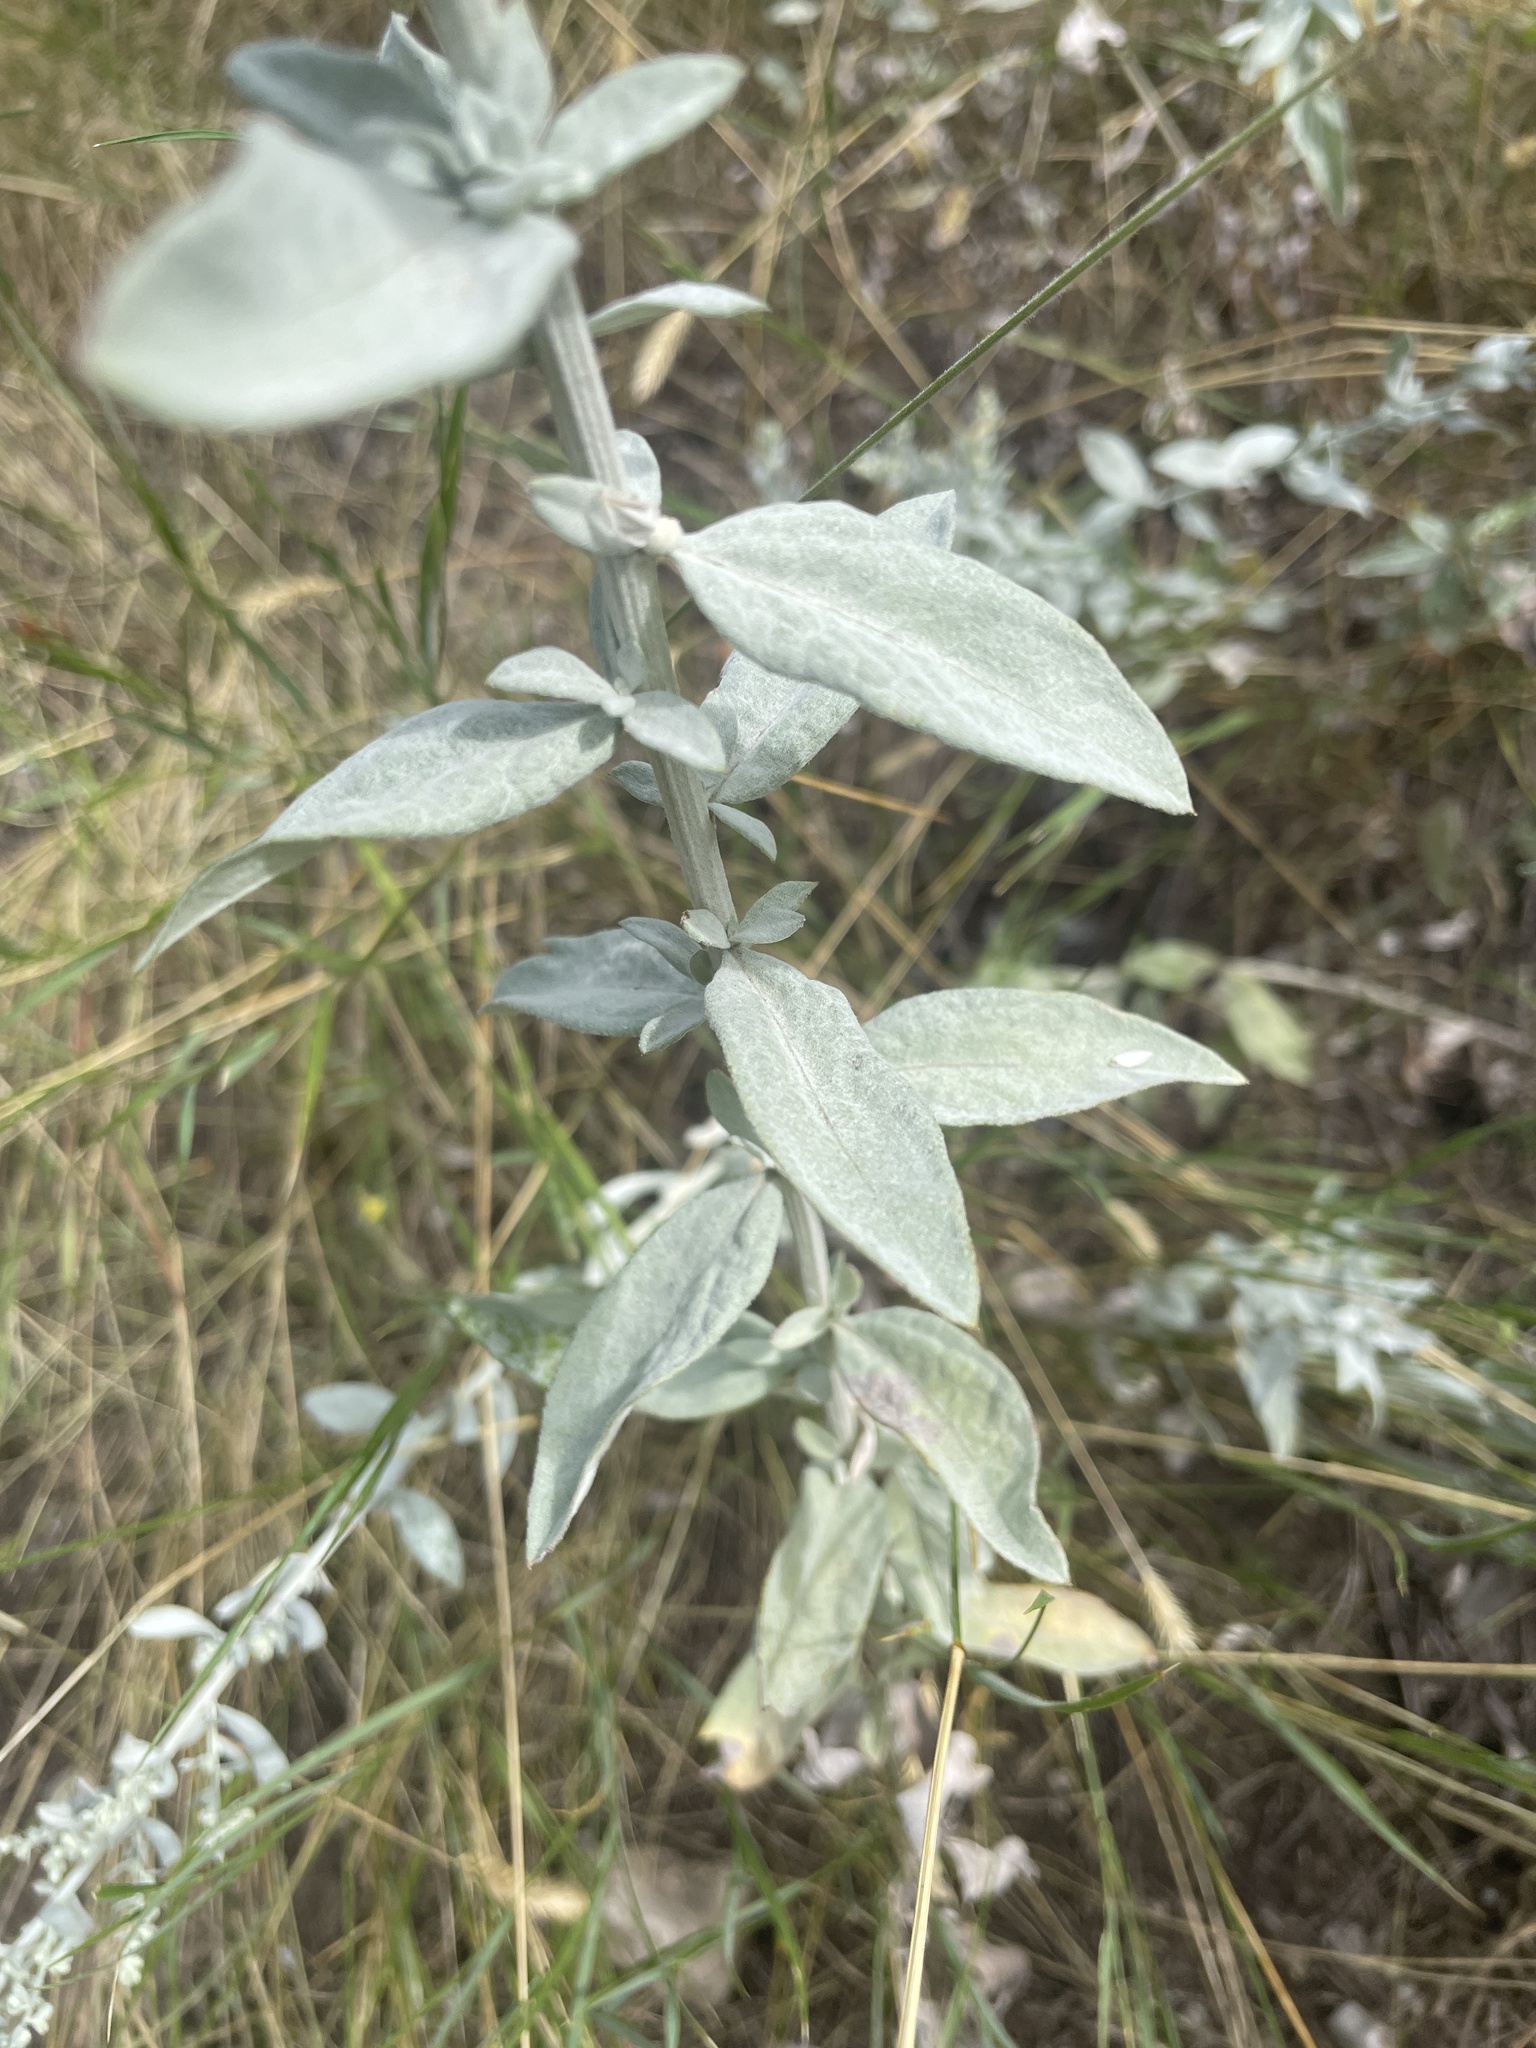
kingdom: Plantae
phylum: Tracheophyta
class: Magnoliopsida
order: Asterales
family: Asteraceae
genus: Artemisia
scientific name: Artemisia ludoviciana
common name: Western mugwort
